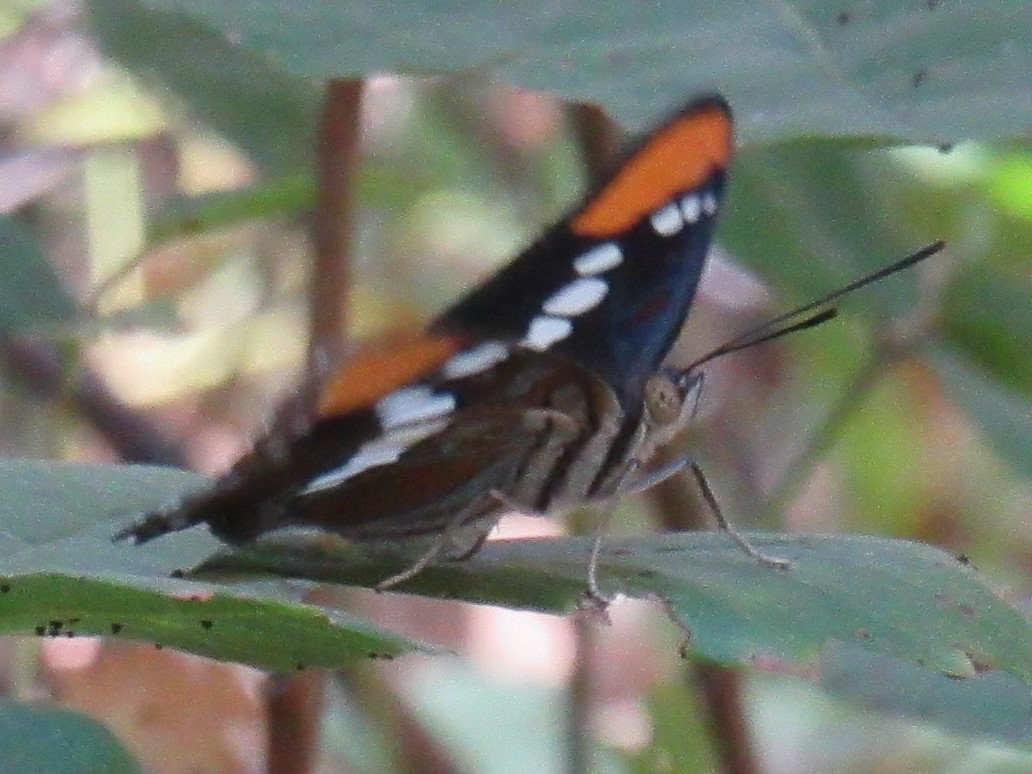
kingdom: Animalia
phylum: Arthropoda
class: Insecta
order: Lepidoptera
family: Nymphalidae
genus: Limenitis
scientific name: Limenitis bredowii
